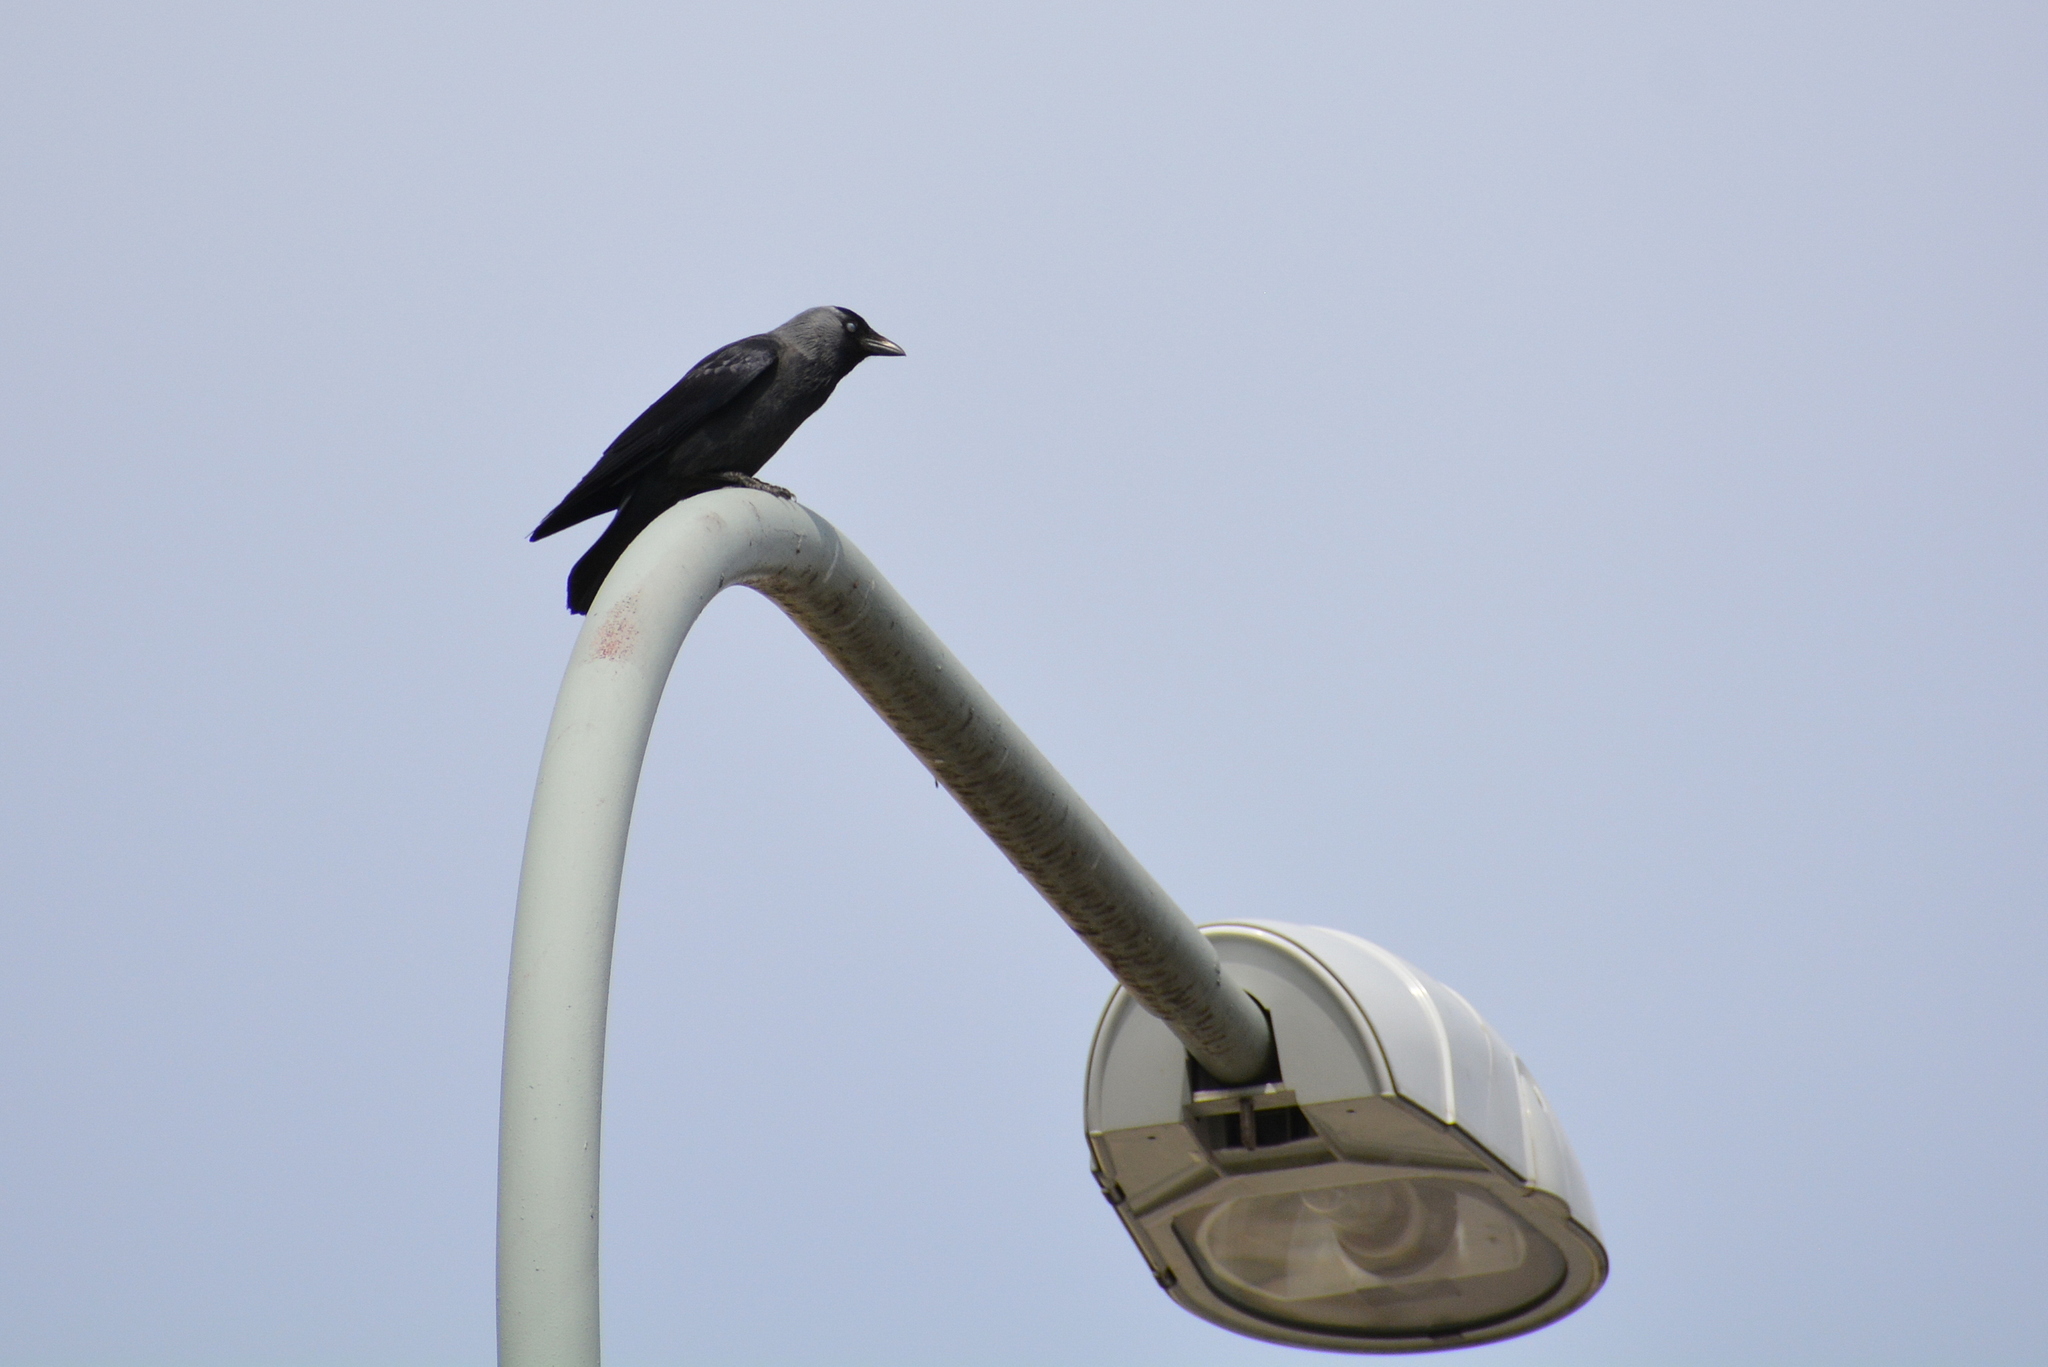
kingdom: Animalia
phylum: Chordata
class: Aves
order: Passeriformes
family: Corvidae
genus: Coloeus
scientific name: Coloeus monedula
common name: Western jackdaw
